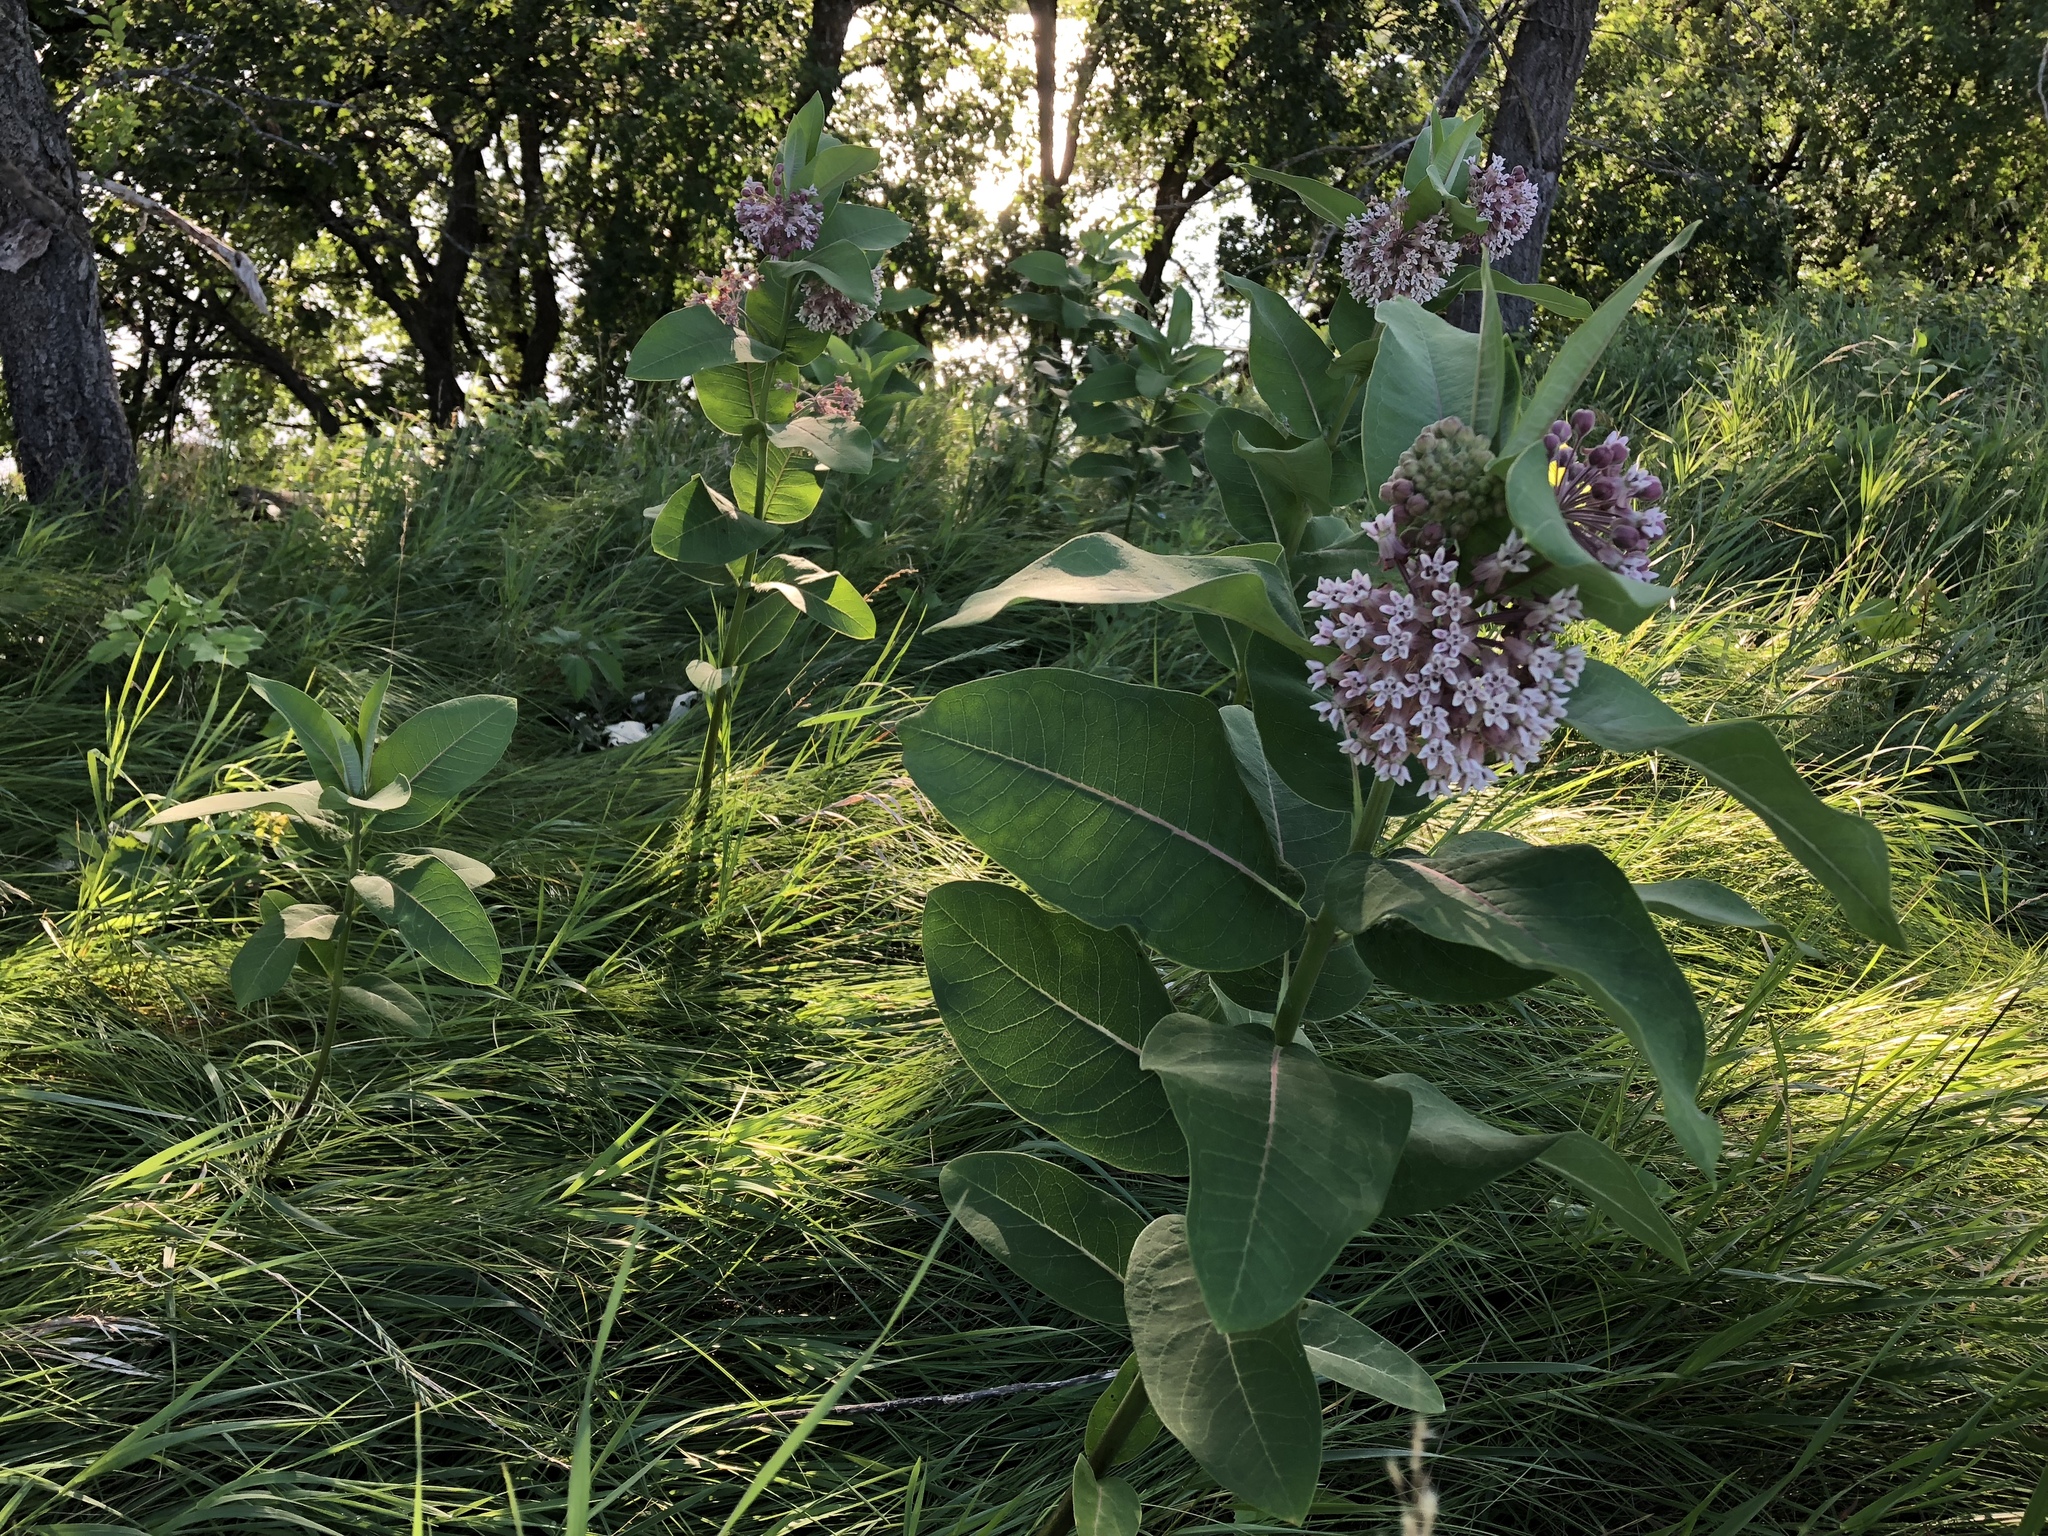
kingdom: Plantae
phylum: Tracheophyta
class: Magnoliopsida
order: Gentianales
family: Apocynaceae
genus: Asclepias
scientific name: Asclepias syriaca
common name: Common milkweed
